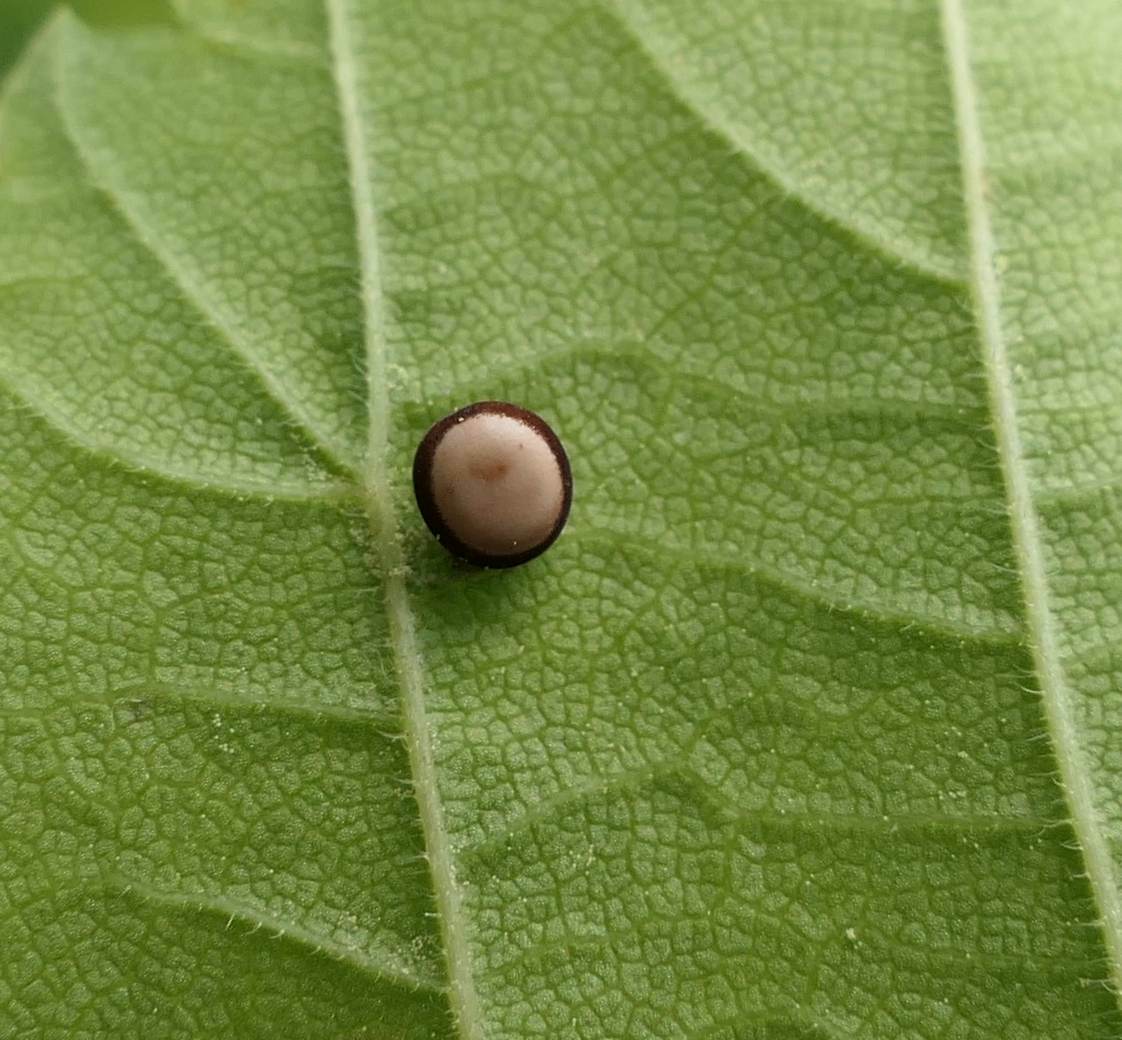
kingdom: Animalia
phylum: Arthropoda
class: Insecta
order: Lepidoptera
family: Saturniidae
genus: Antheraea
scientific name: Antheraea polyphemus
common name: Polyphemus moth
